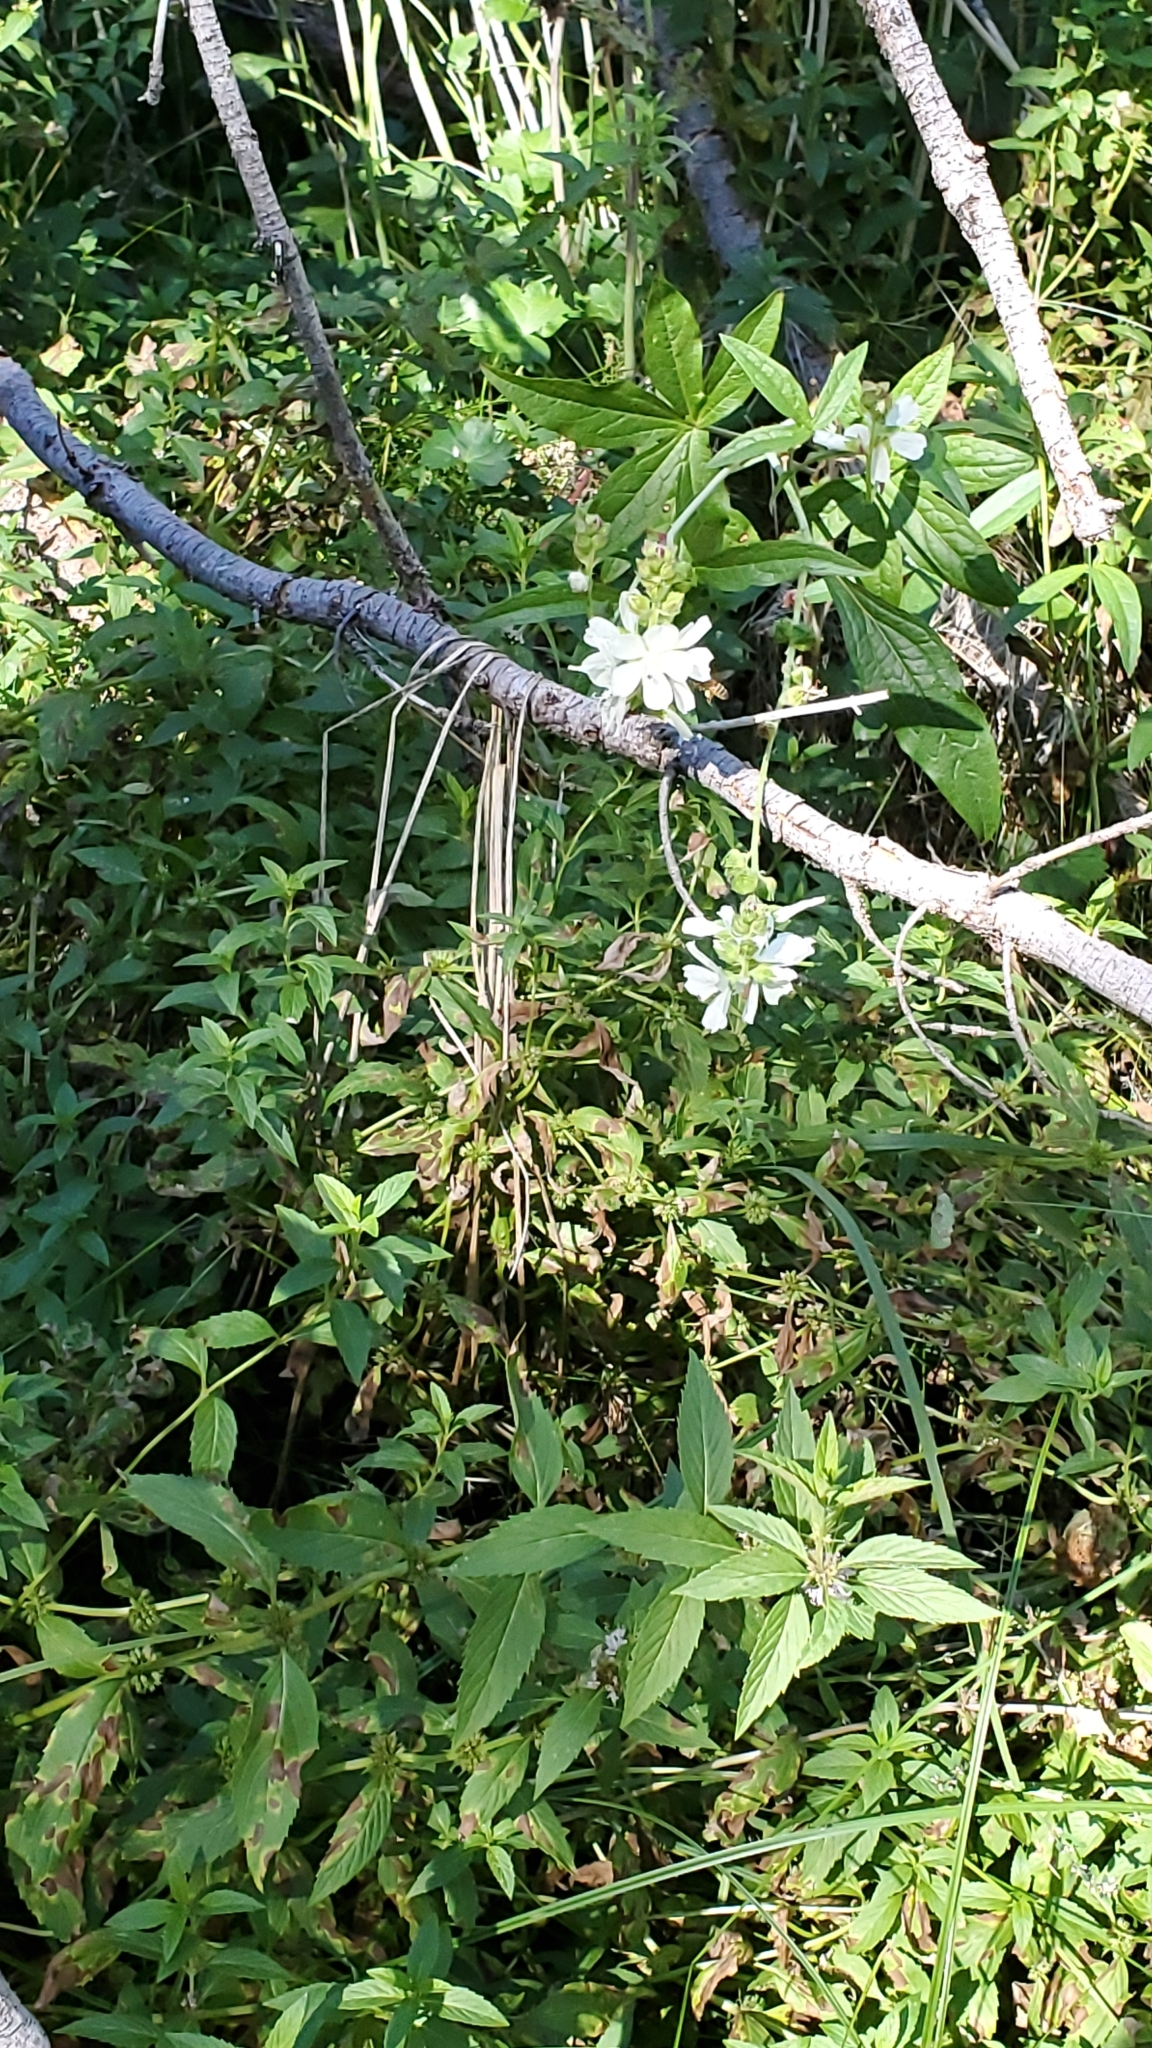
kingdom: Plantae
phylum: Tracheophyta
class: Magnoliopsida
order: Malvales
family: Malvaceae
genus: Sidalcea
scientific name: Sidalcea candida
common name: Prairie-mallow
